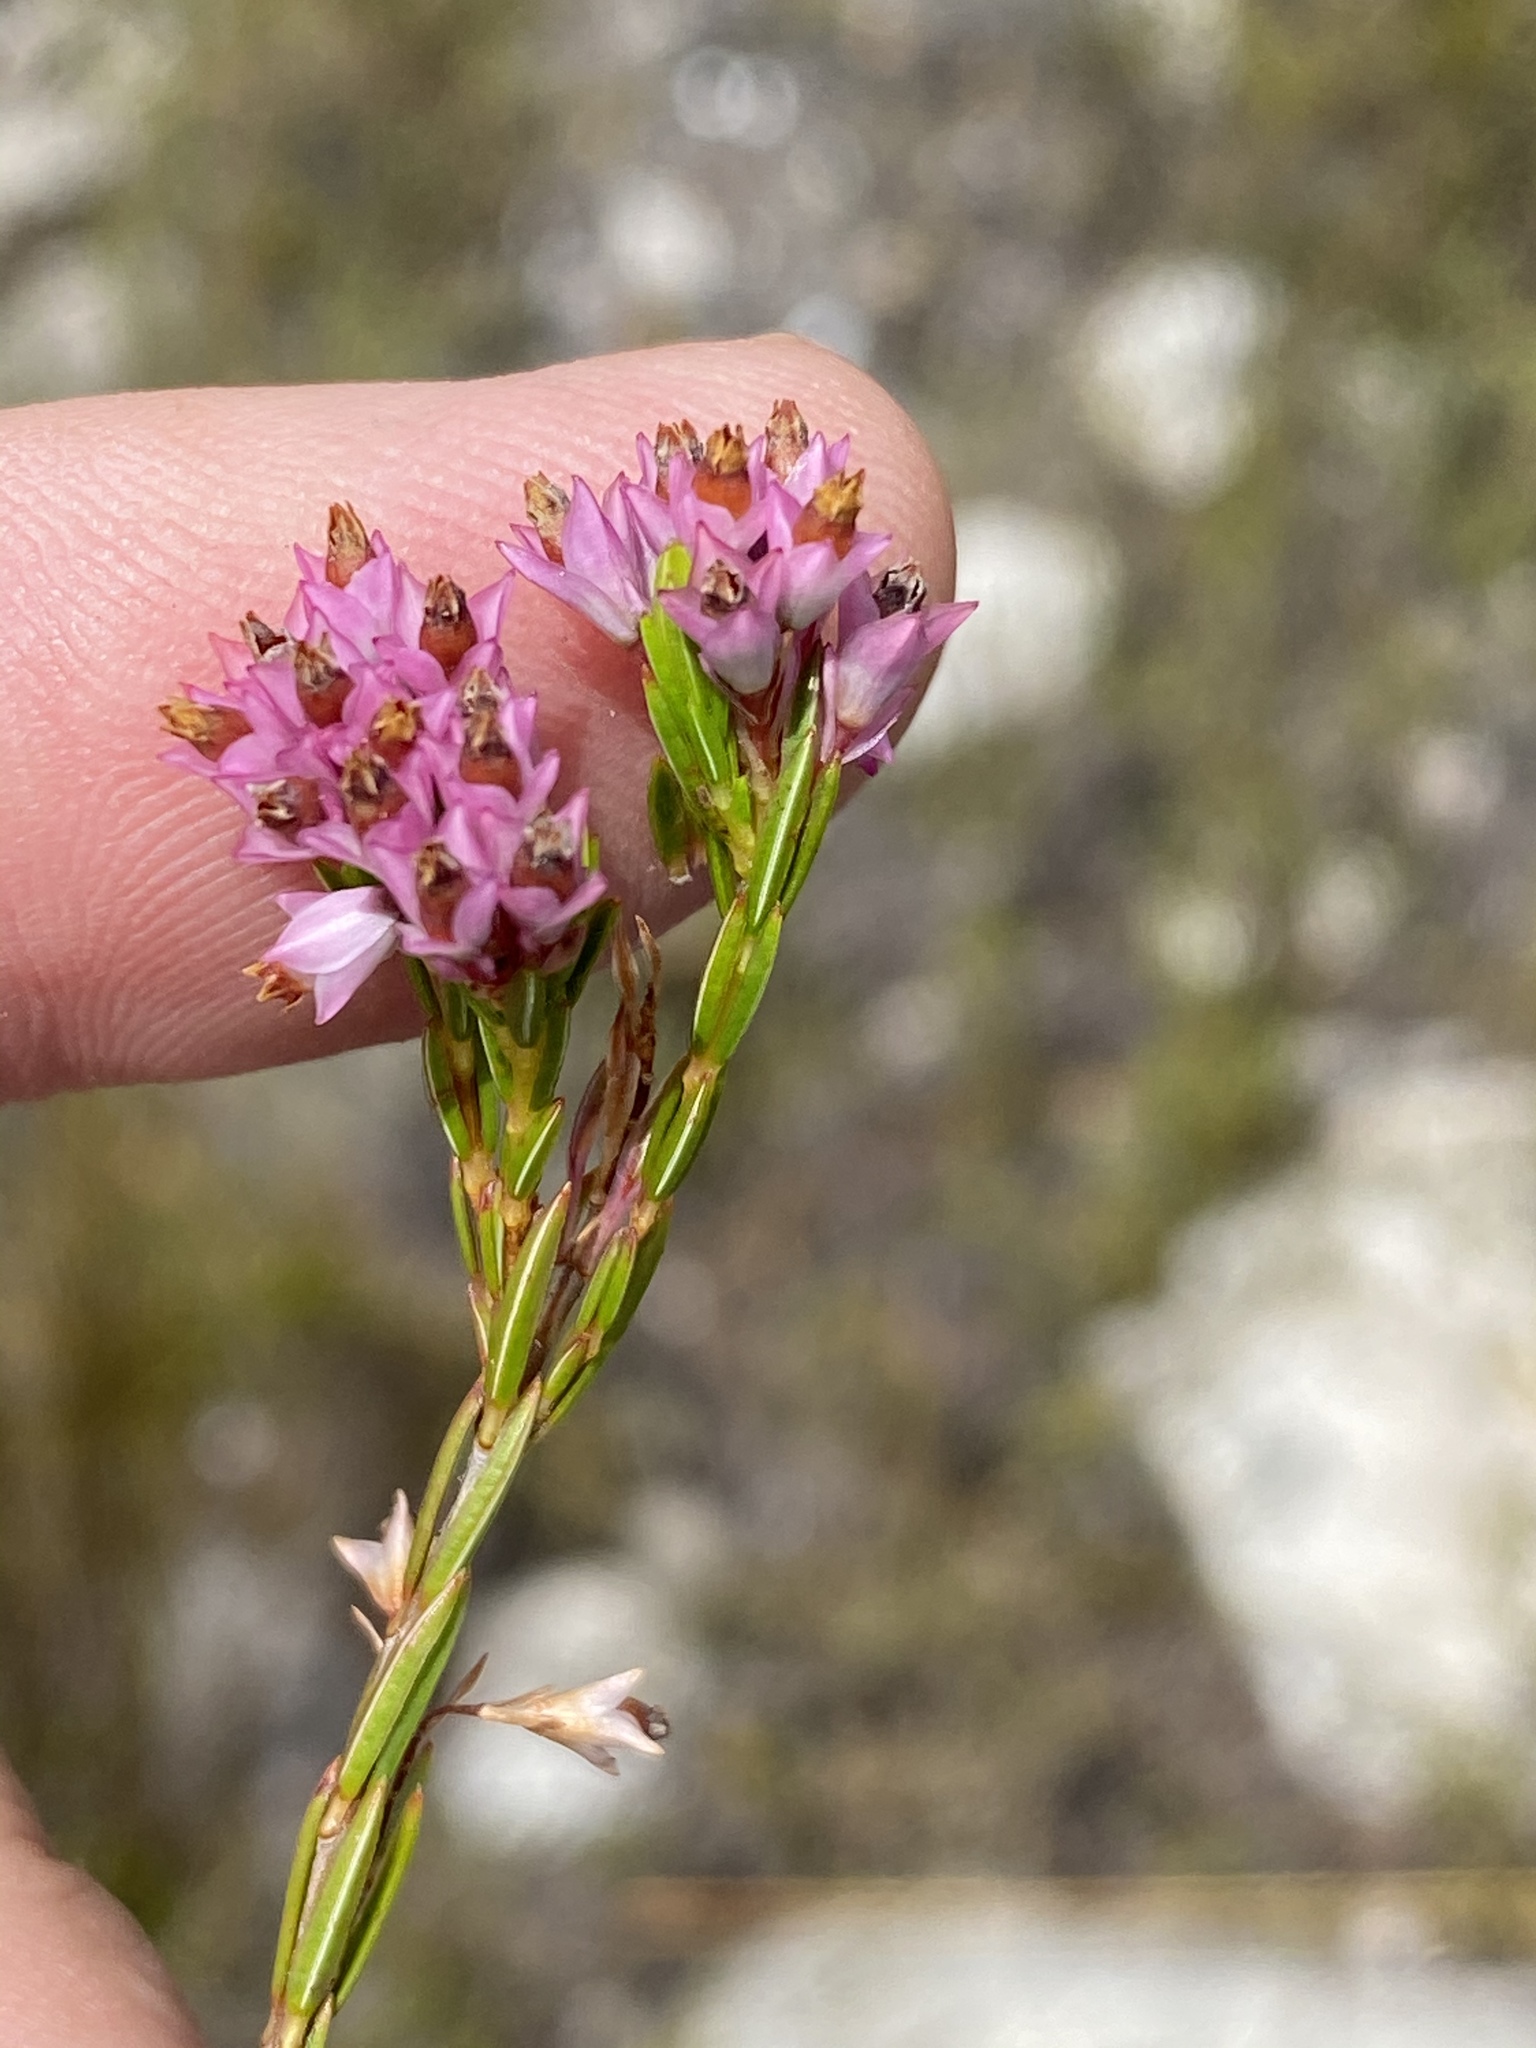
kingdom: Plantae
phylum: Tracheophyta
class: Magnoliopsida
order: Ericales
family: Ericaceae
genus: Erica
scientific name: Erica corifolia
